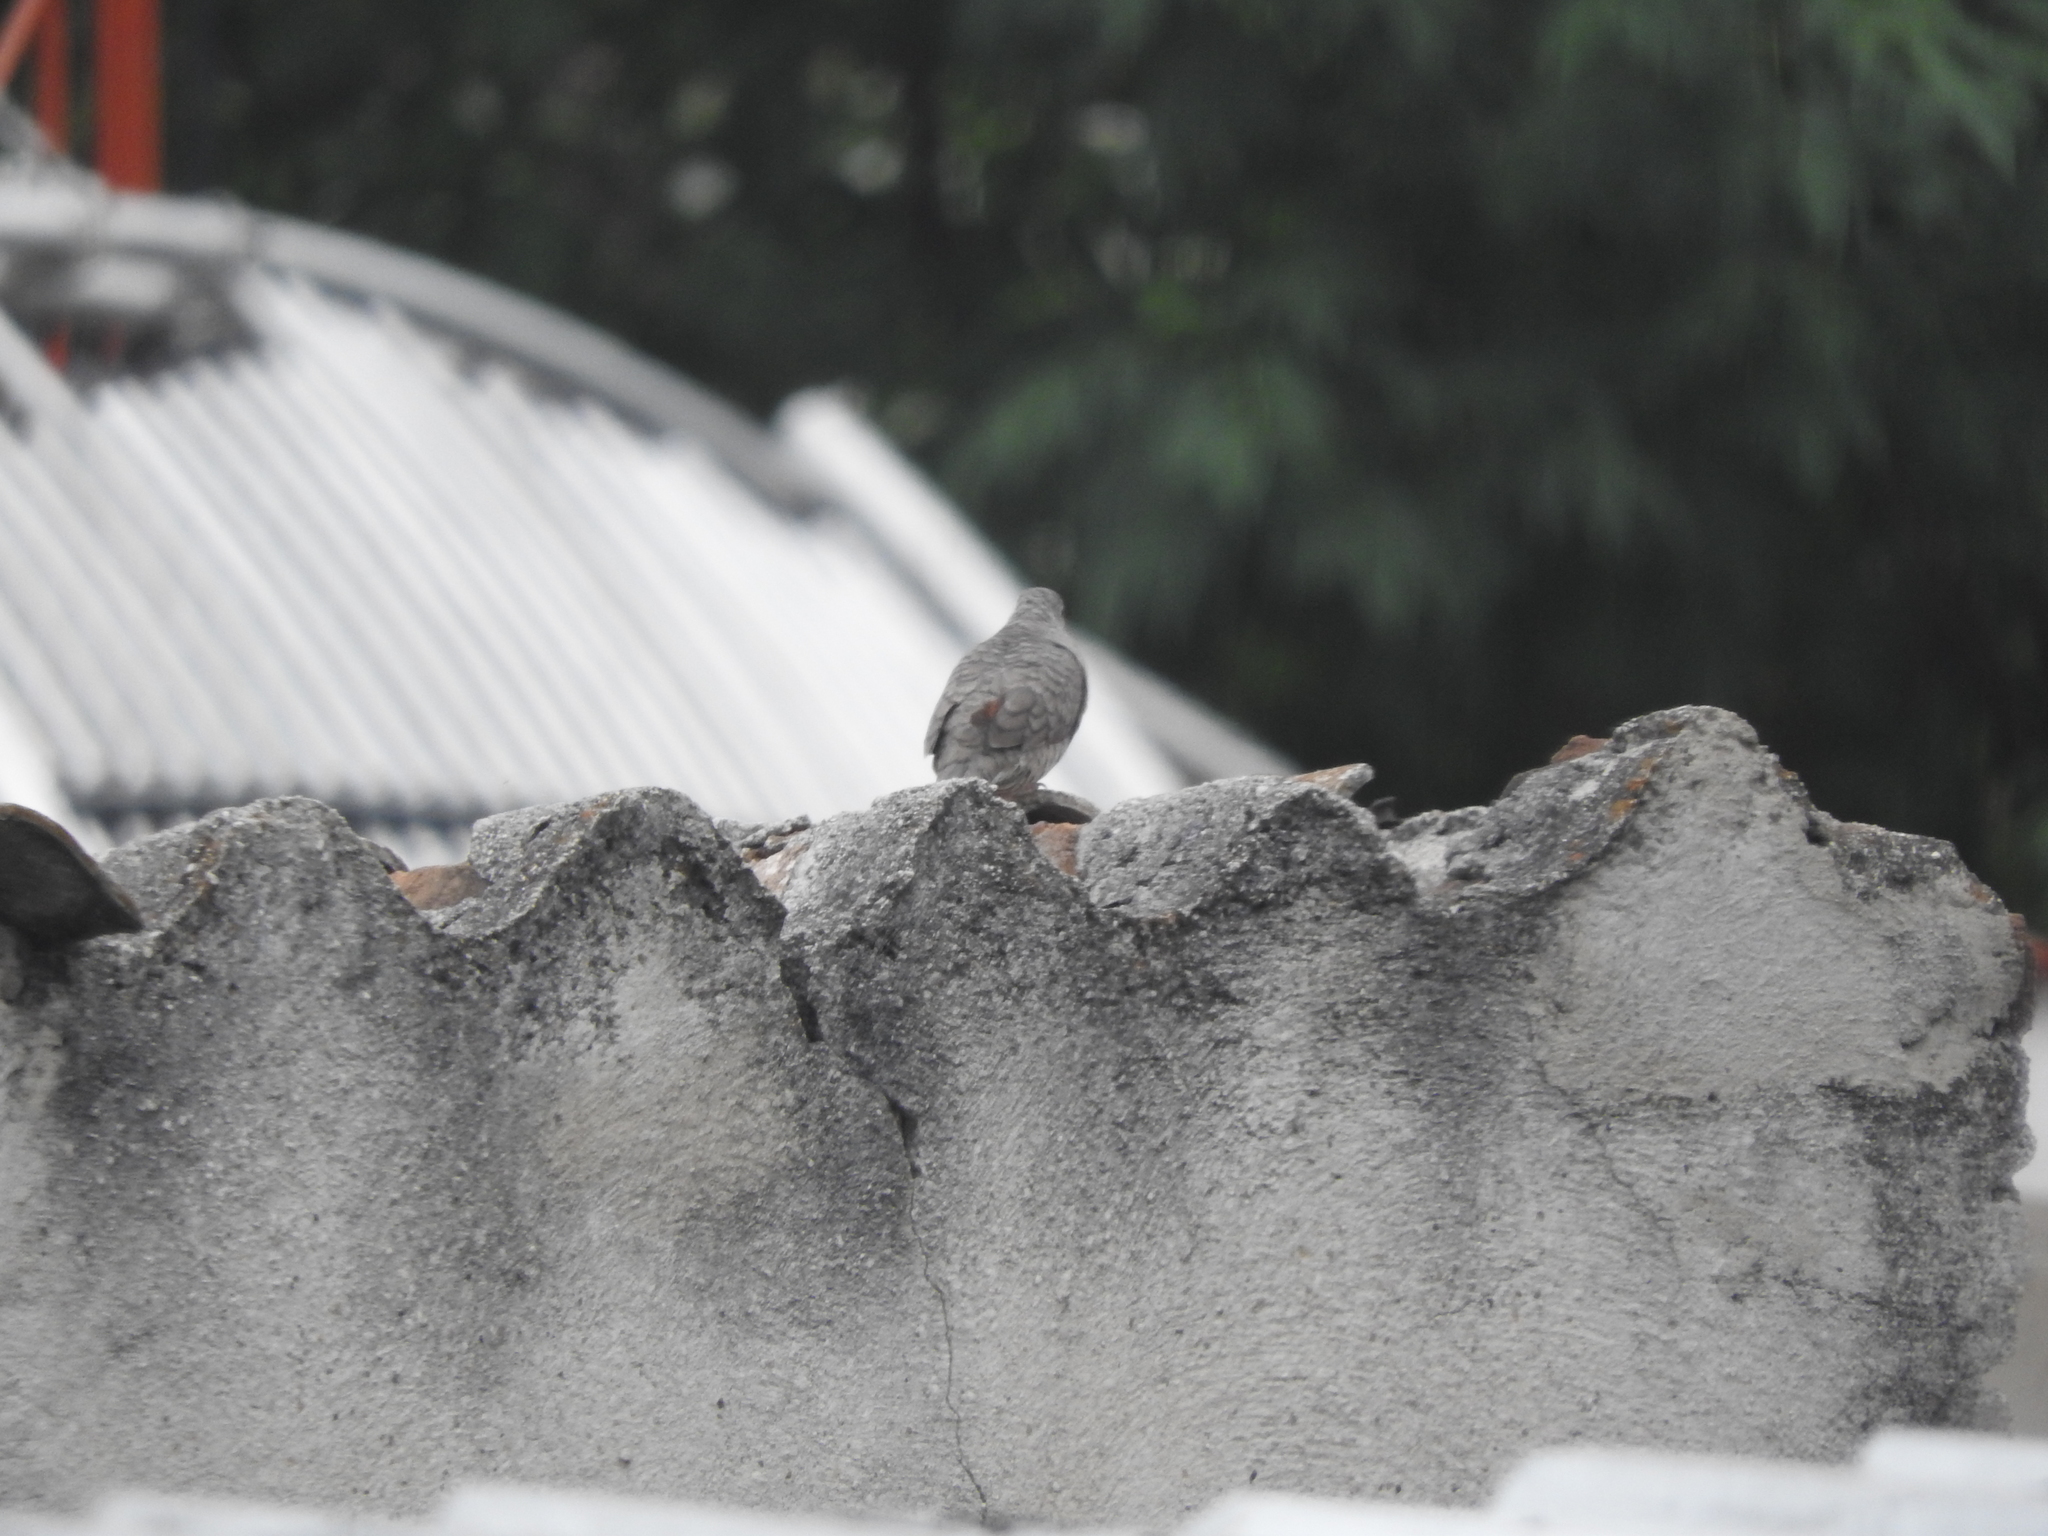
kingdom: Animalia
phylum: Chordata
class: Aves
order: Columbiformes
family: Columbidae
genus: Columbina
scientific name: Columbina inca
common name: Inca dove
